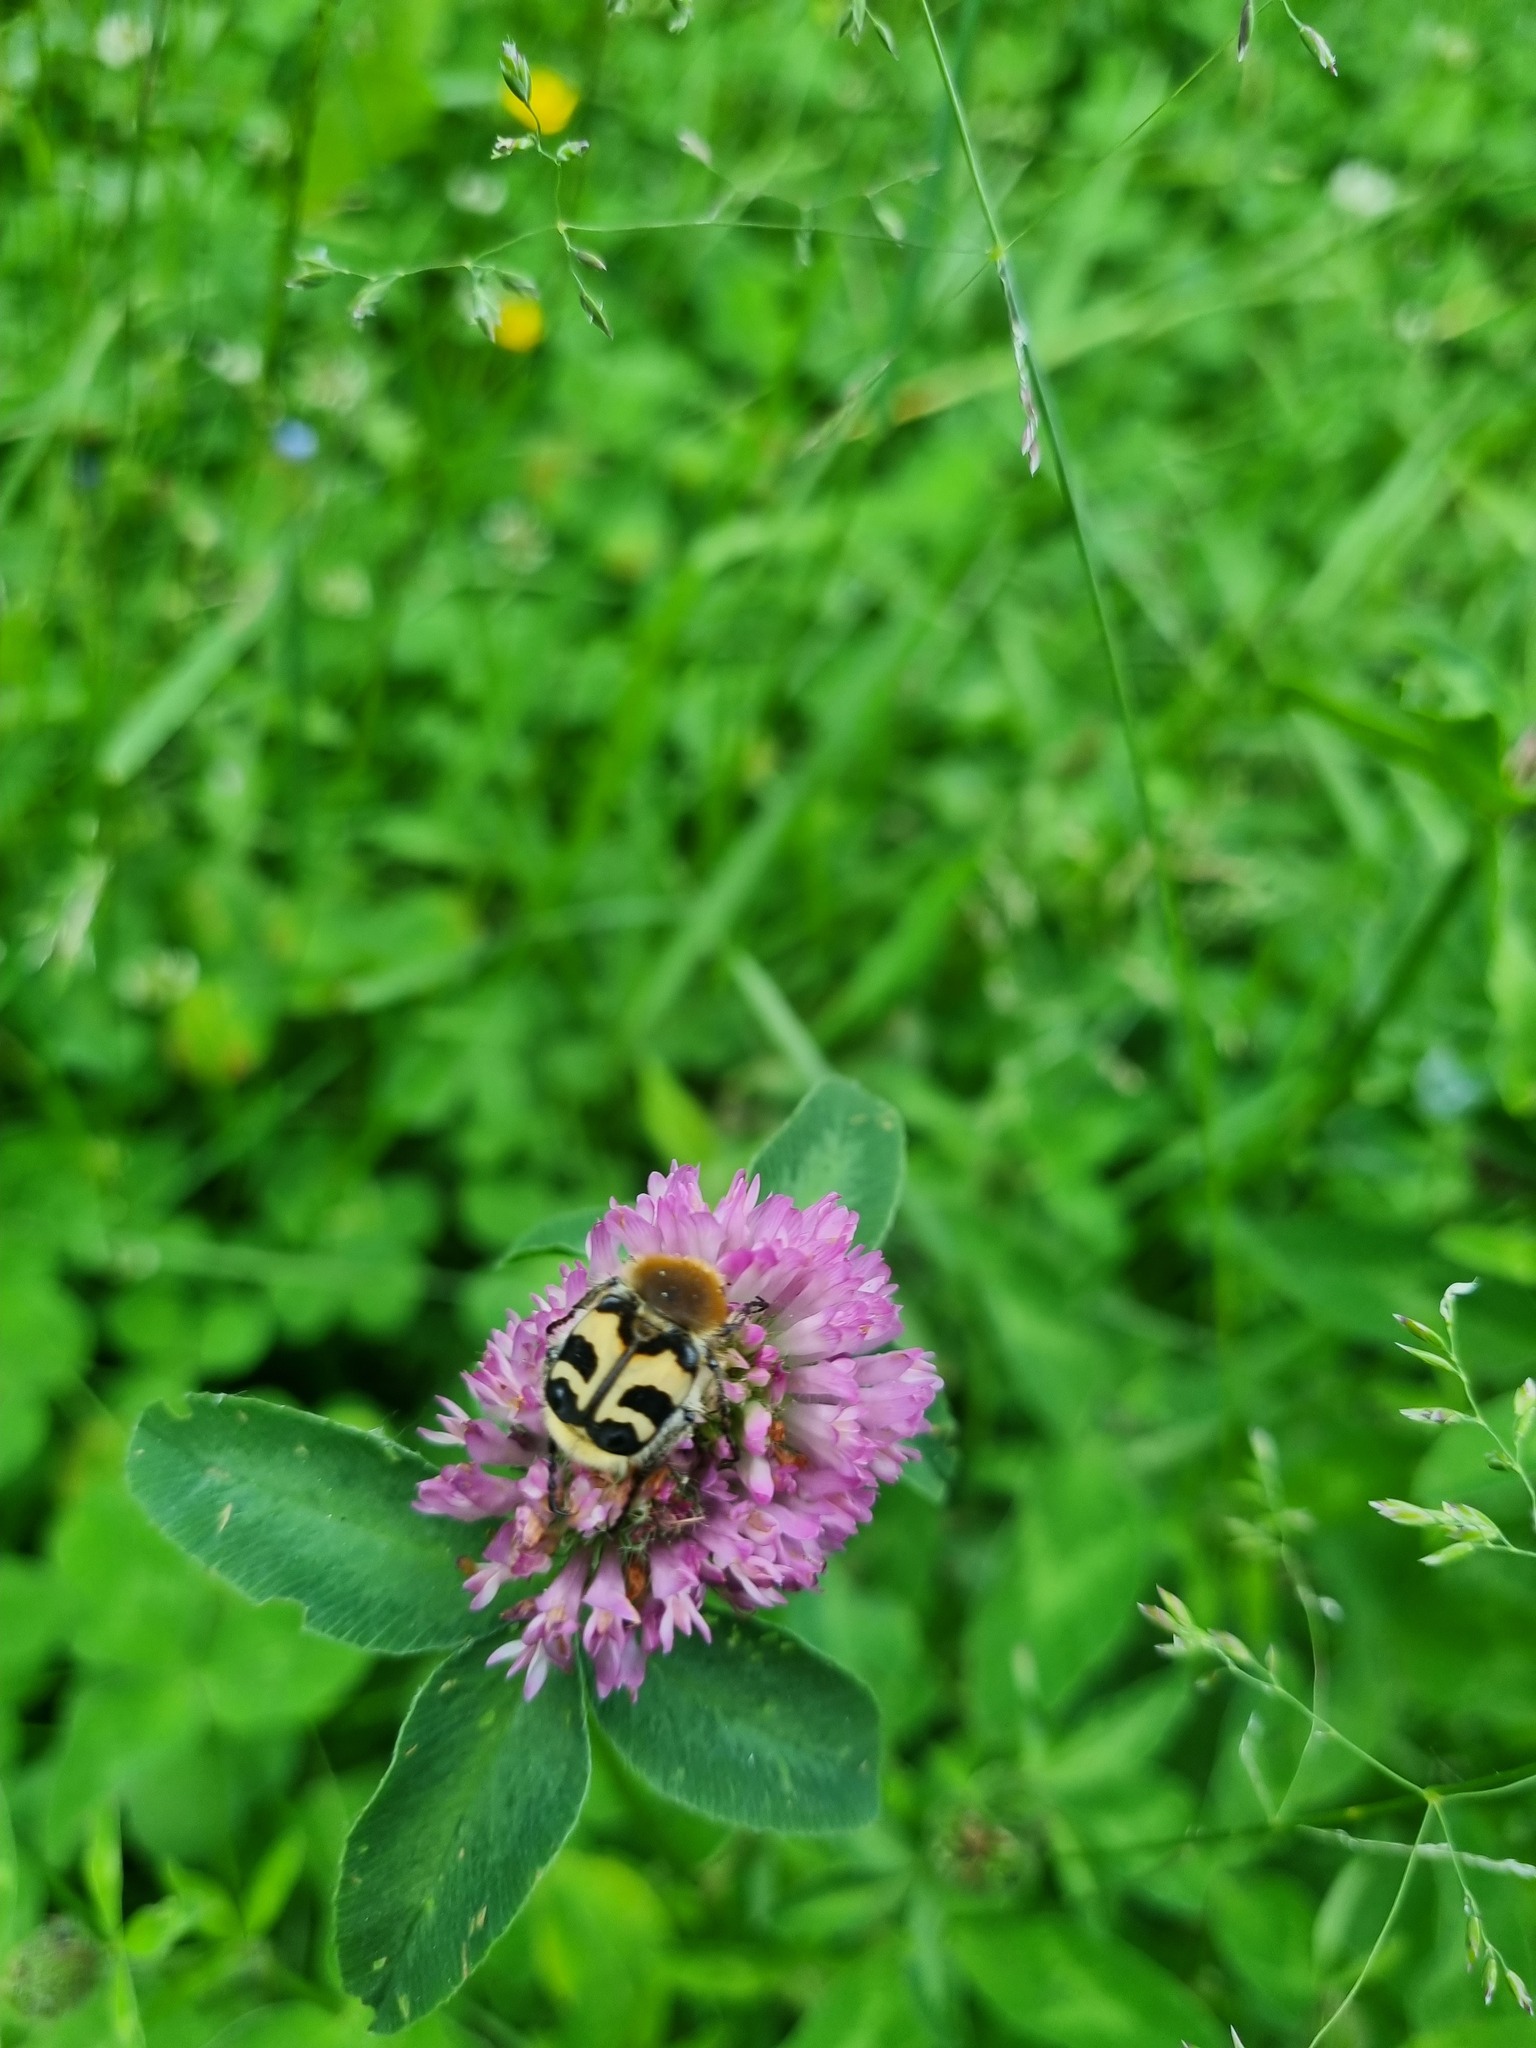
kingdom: Animalia
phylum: Arthropoda
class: Insecta
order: Coleoptera
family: Scarabaeidae
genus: Trichius
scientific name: Trichius fasciatus
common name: Bee beetle
